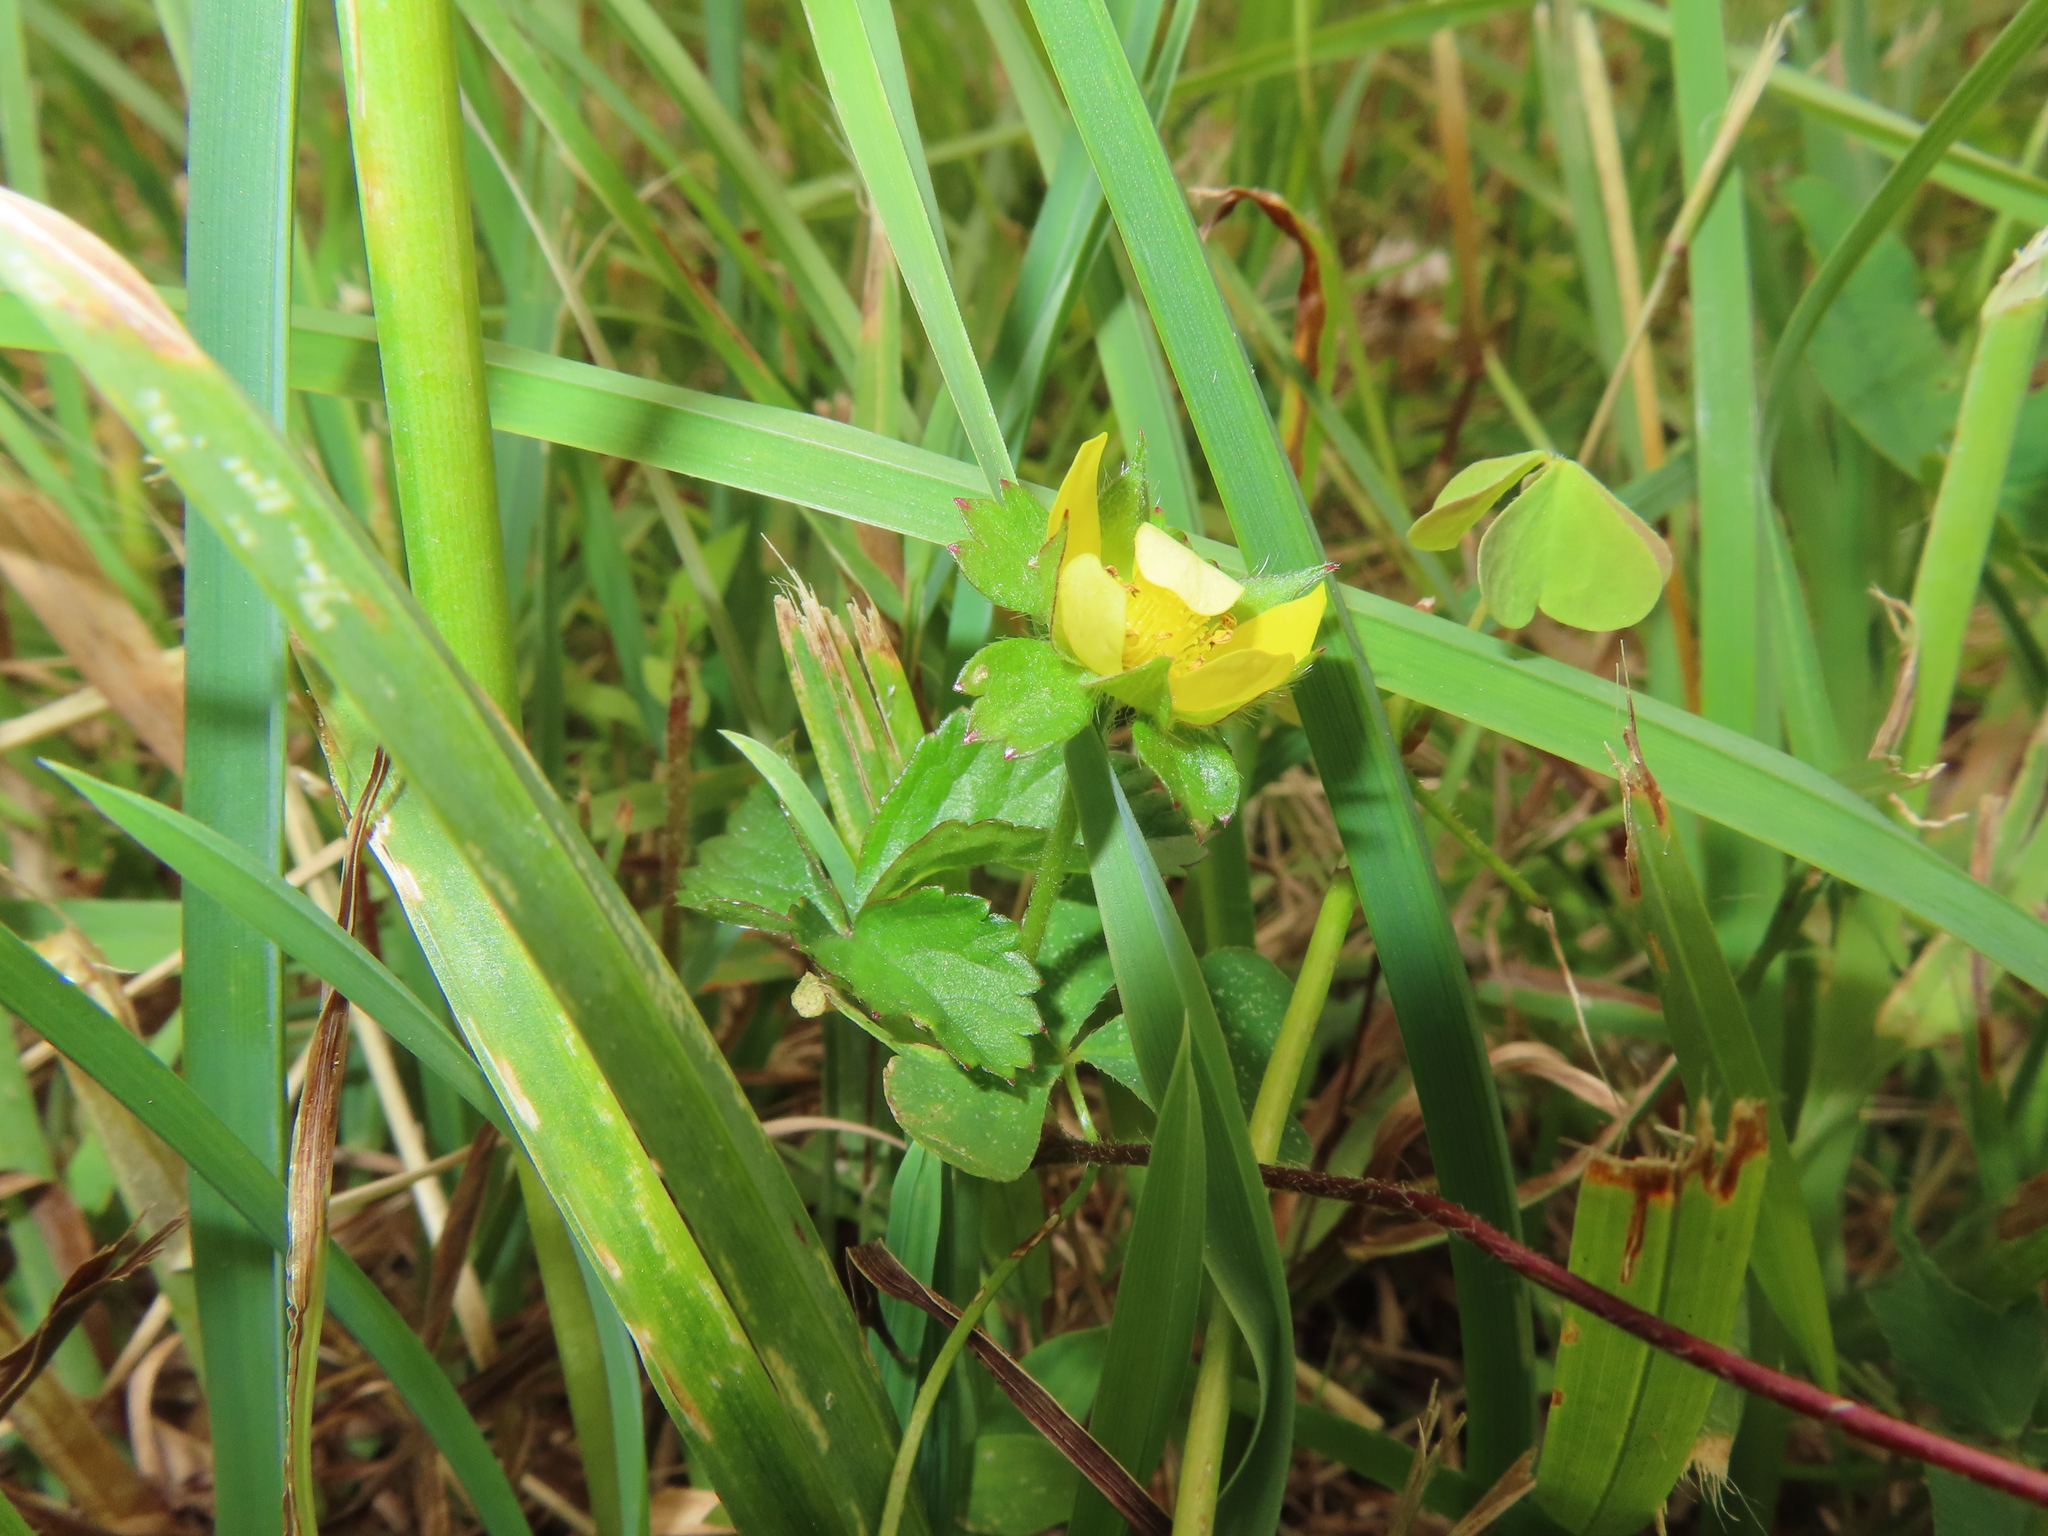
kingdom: Plantae
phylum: Tracheophyta
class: Magnoliopsida
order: Rosales
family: Rosaceae
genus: Potentilla
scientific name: Potentilla indica
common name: Yellow-flowered strawberry
